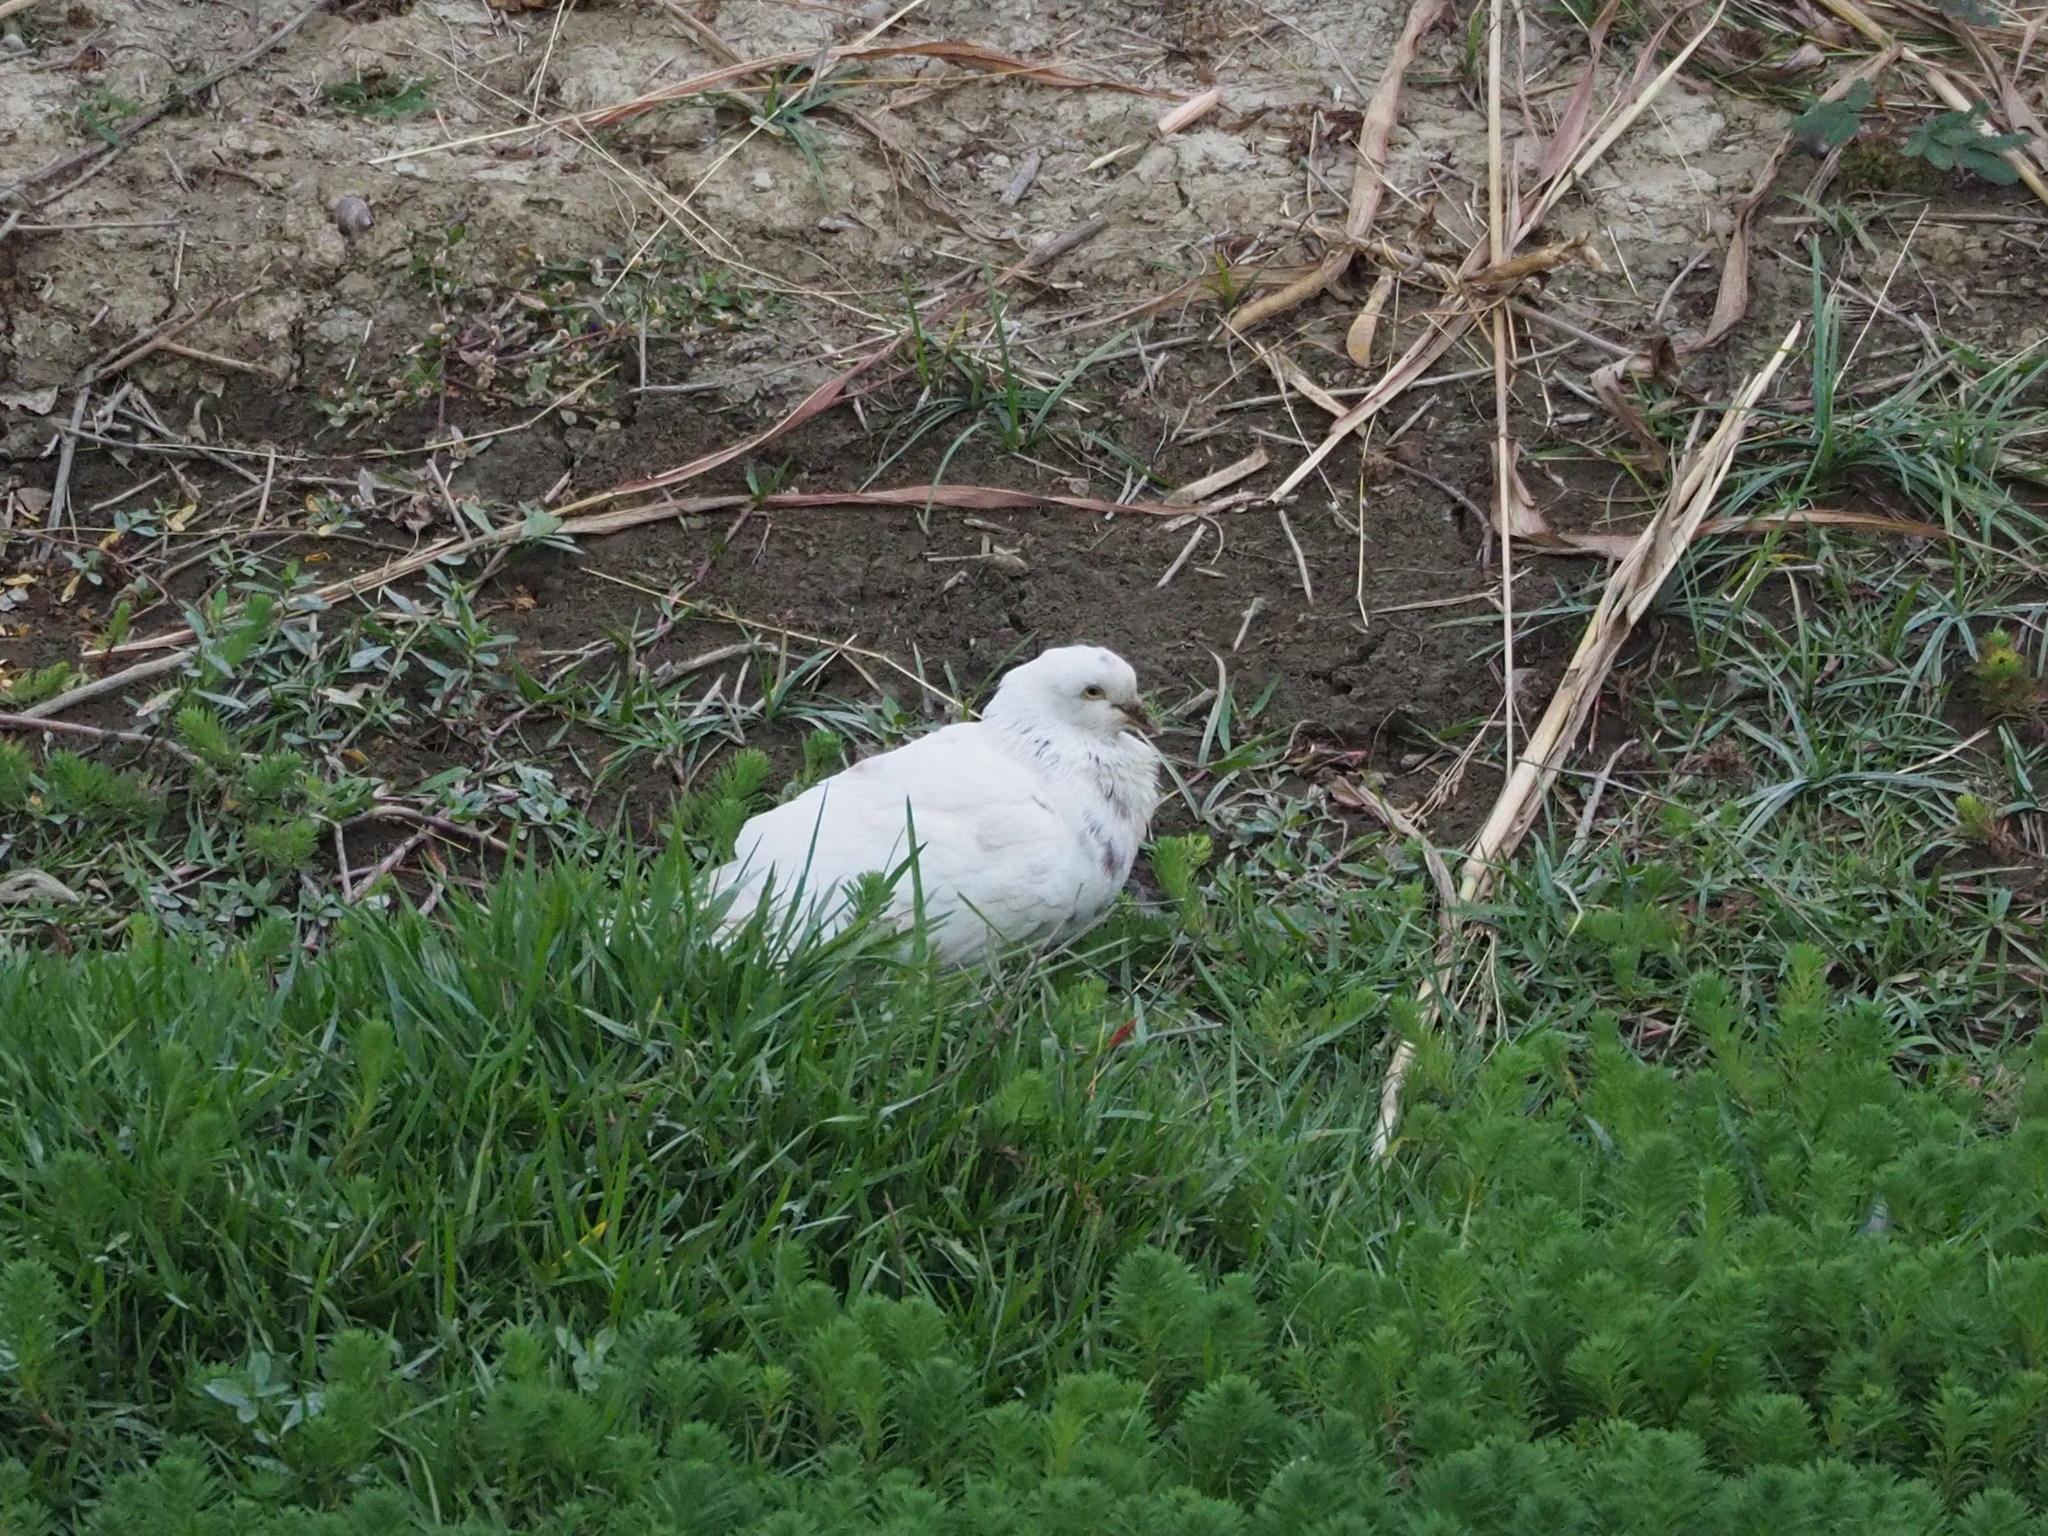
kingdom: Animalia
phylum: Chordata
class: Aves
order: Columbiformes
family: Columbidae
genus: Columba
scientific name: Columba livia
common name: Rock pigeon
